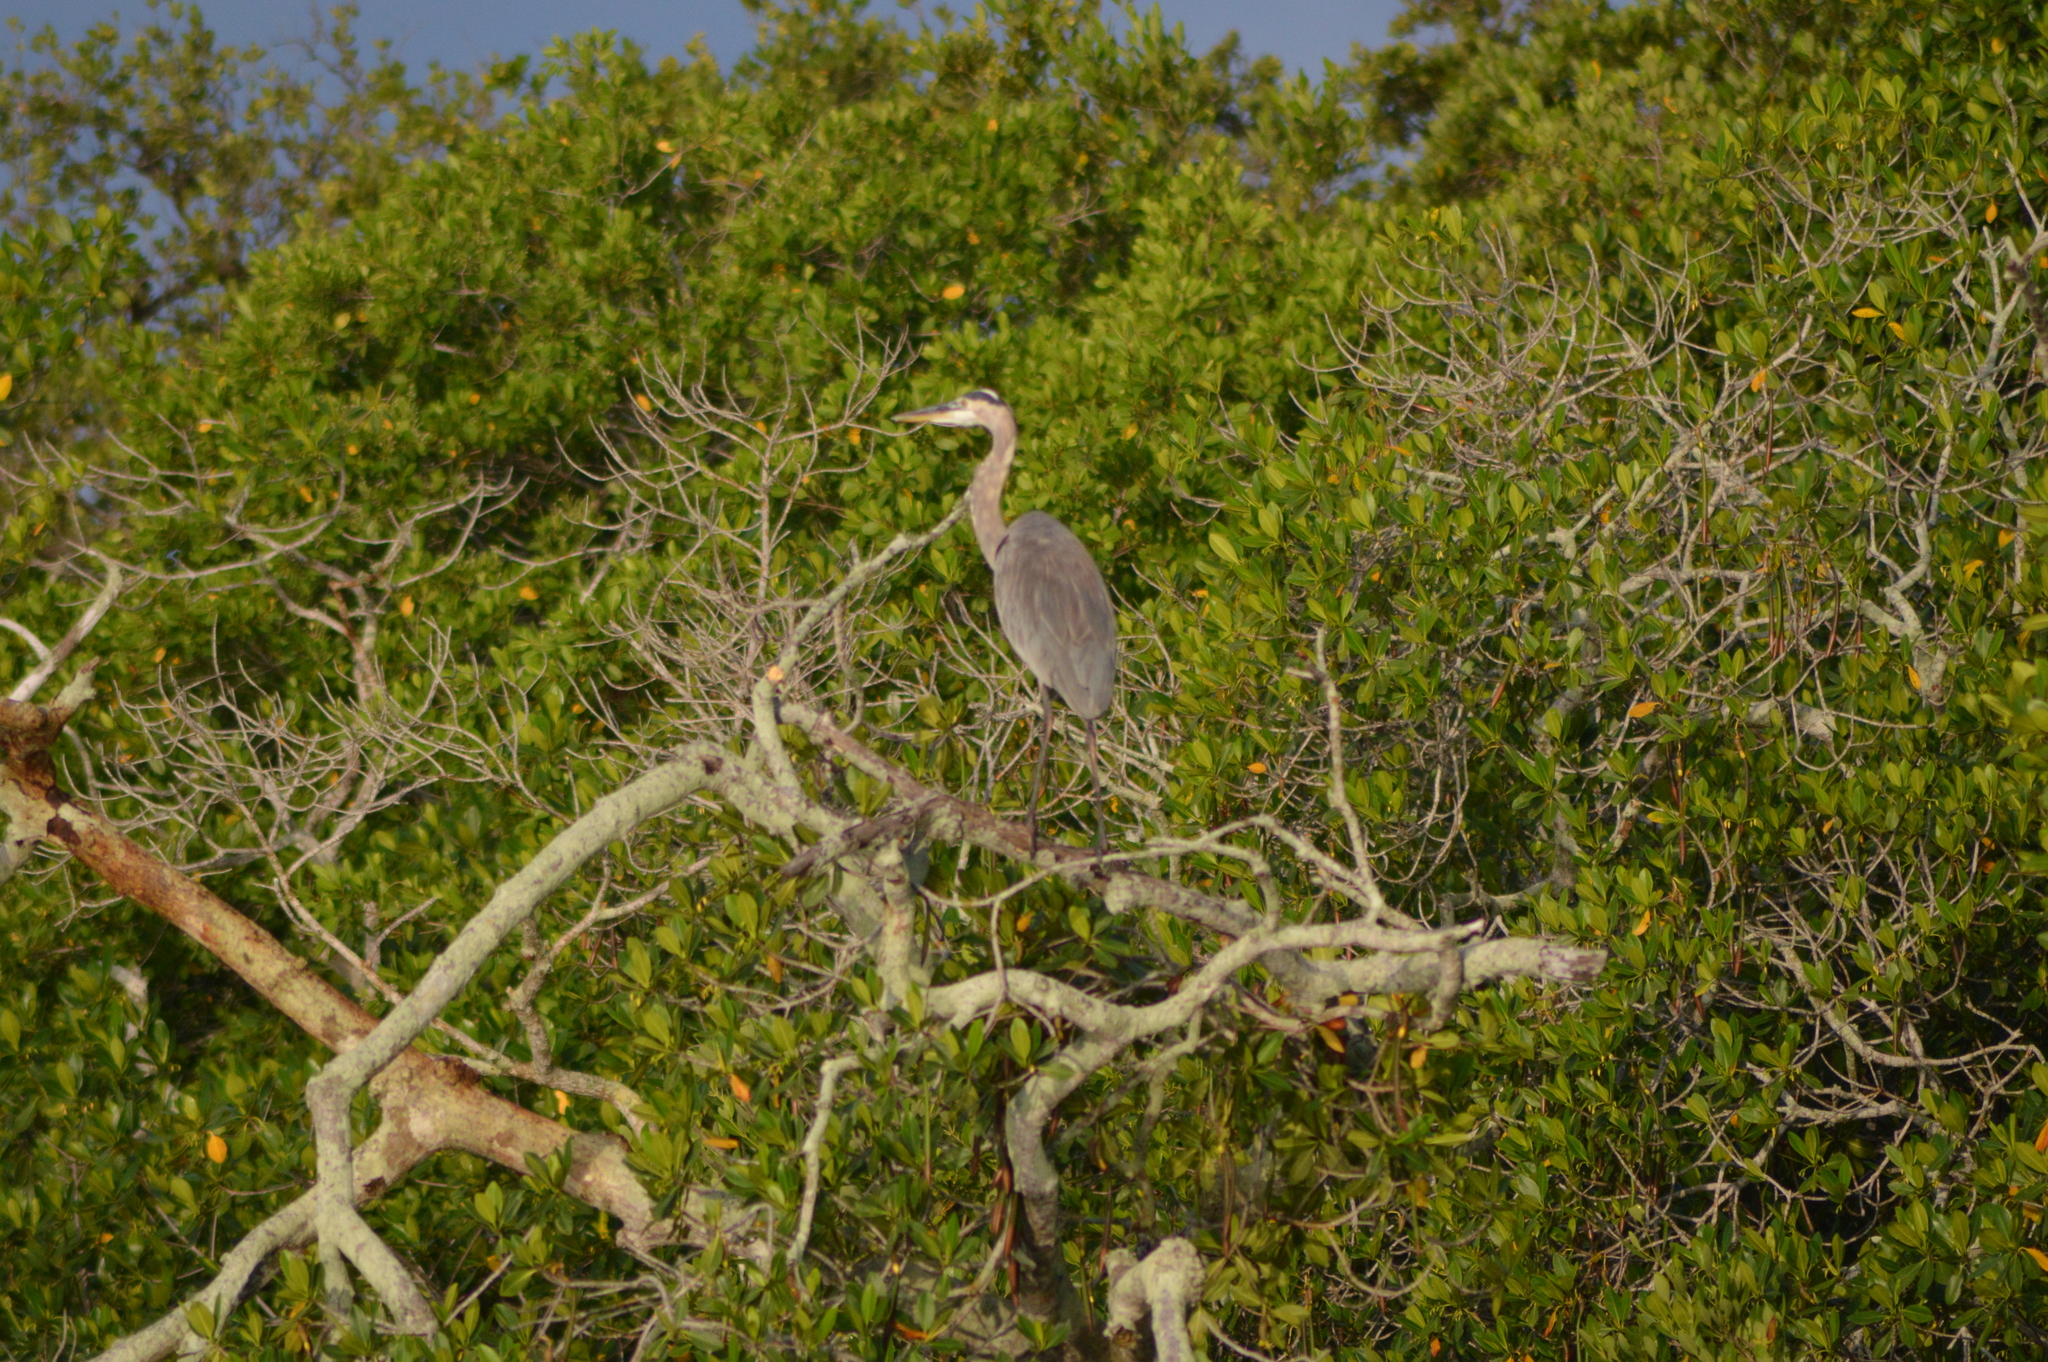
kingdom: Animalia
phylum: Chordata
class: Aves
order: Pelecaniformes
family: Ardeidae
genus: Ardea
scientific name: Ardea herodias
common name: Great blue heron
